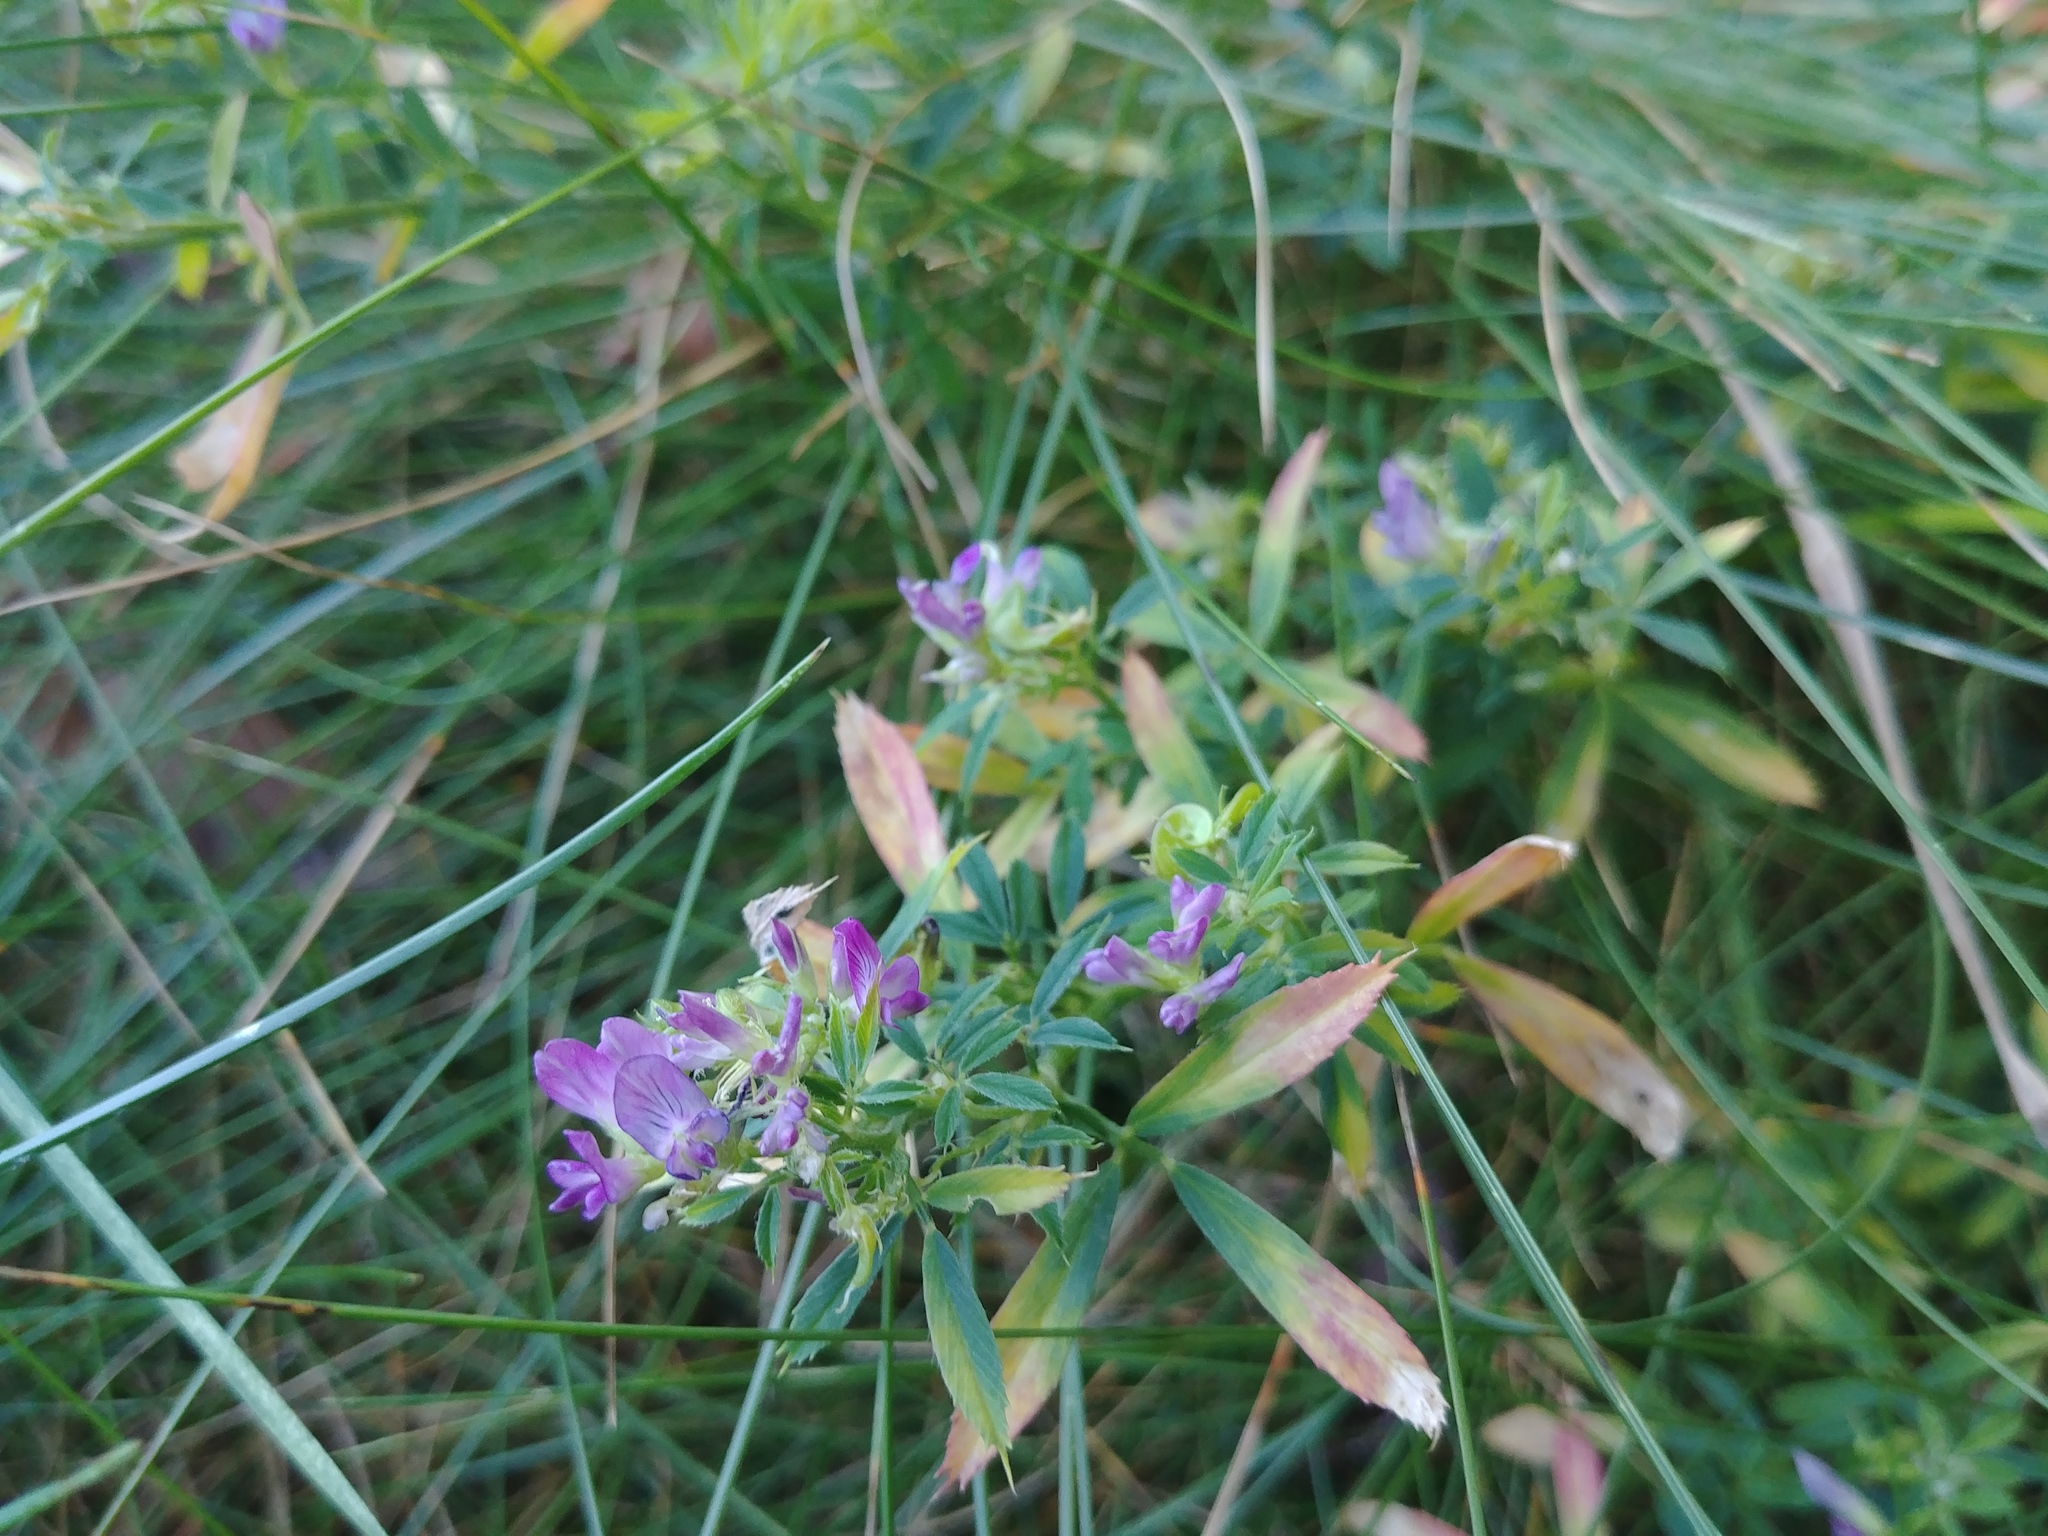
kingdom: Plantae
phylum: Tracheophyta
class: Magnoliopsida
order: Fabales
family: Fabaceae
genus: Medicago
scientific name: Medicago sativa
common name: Alfalfa
